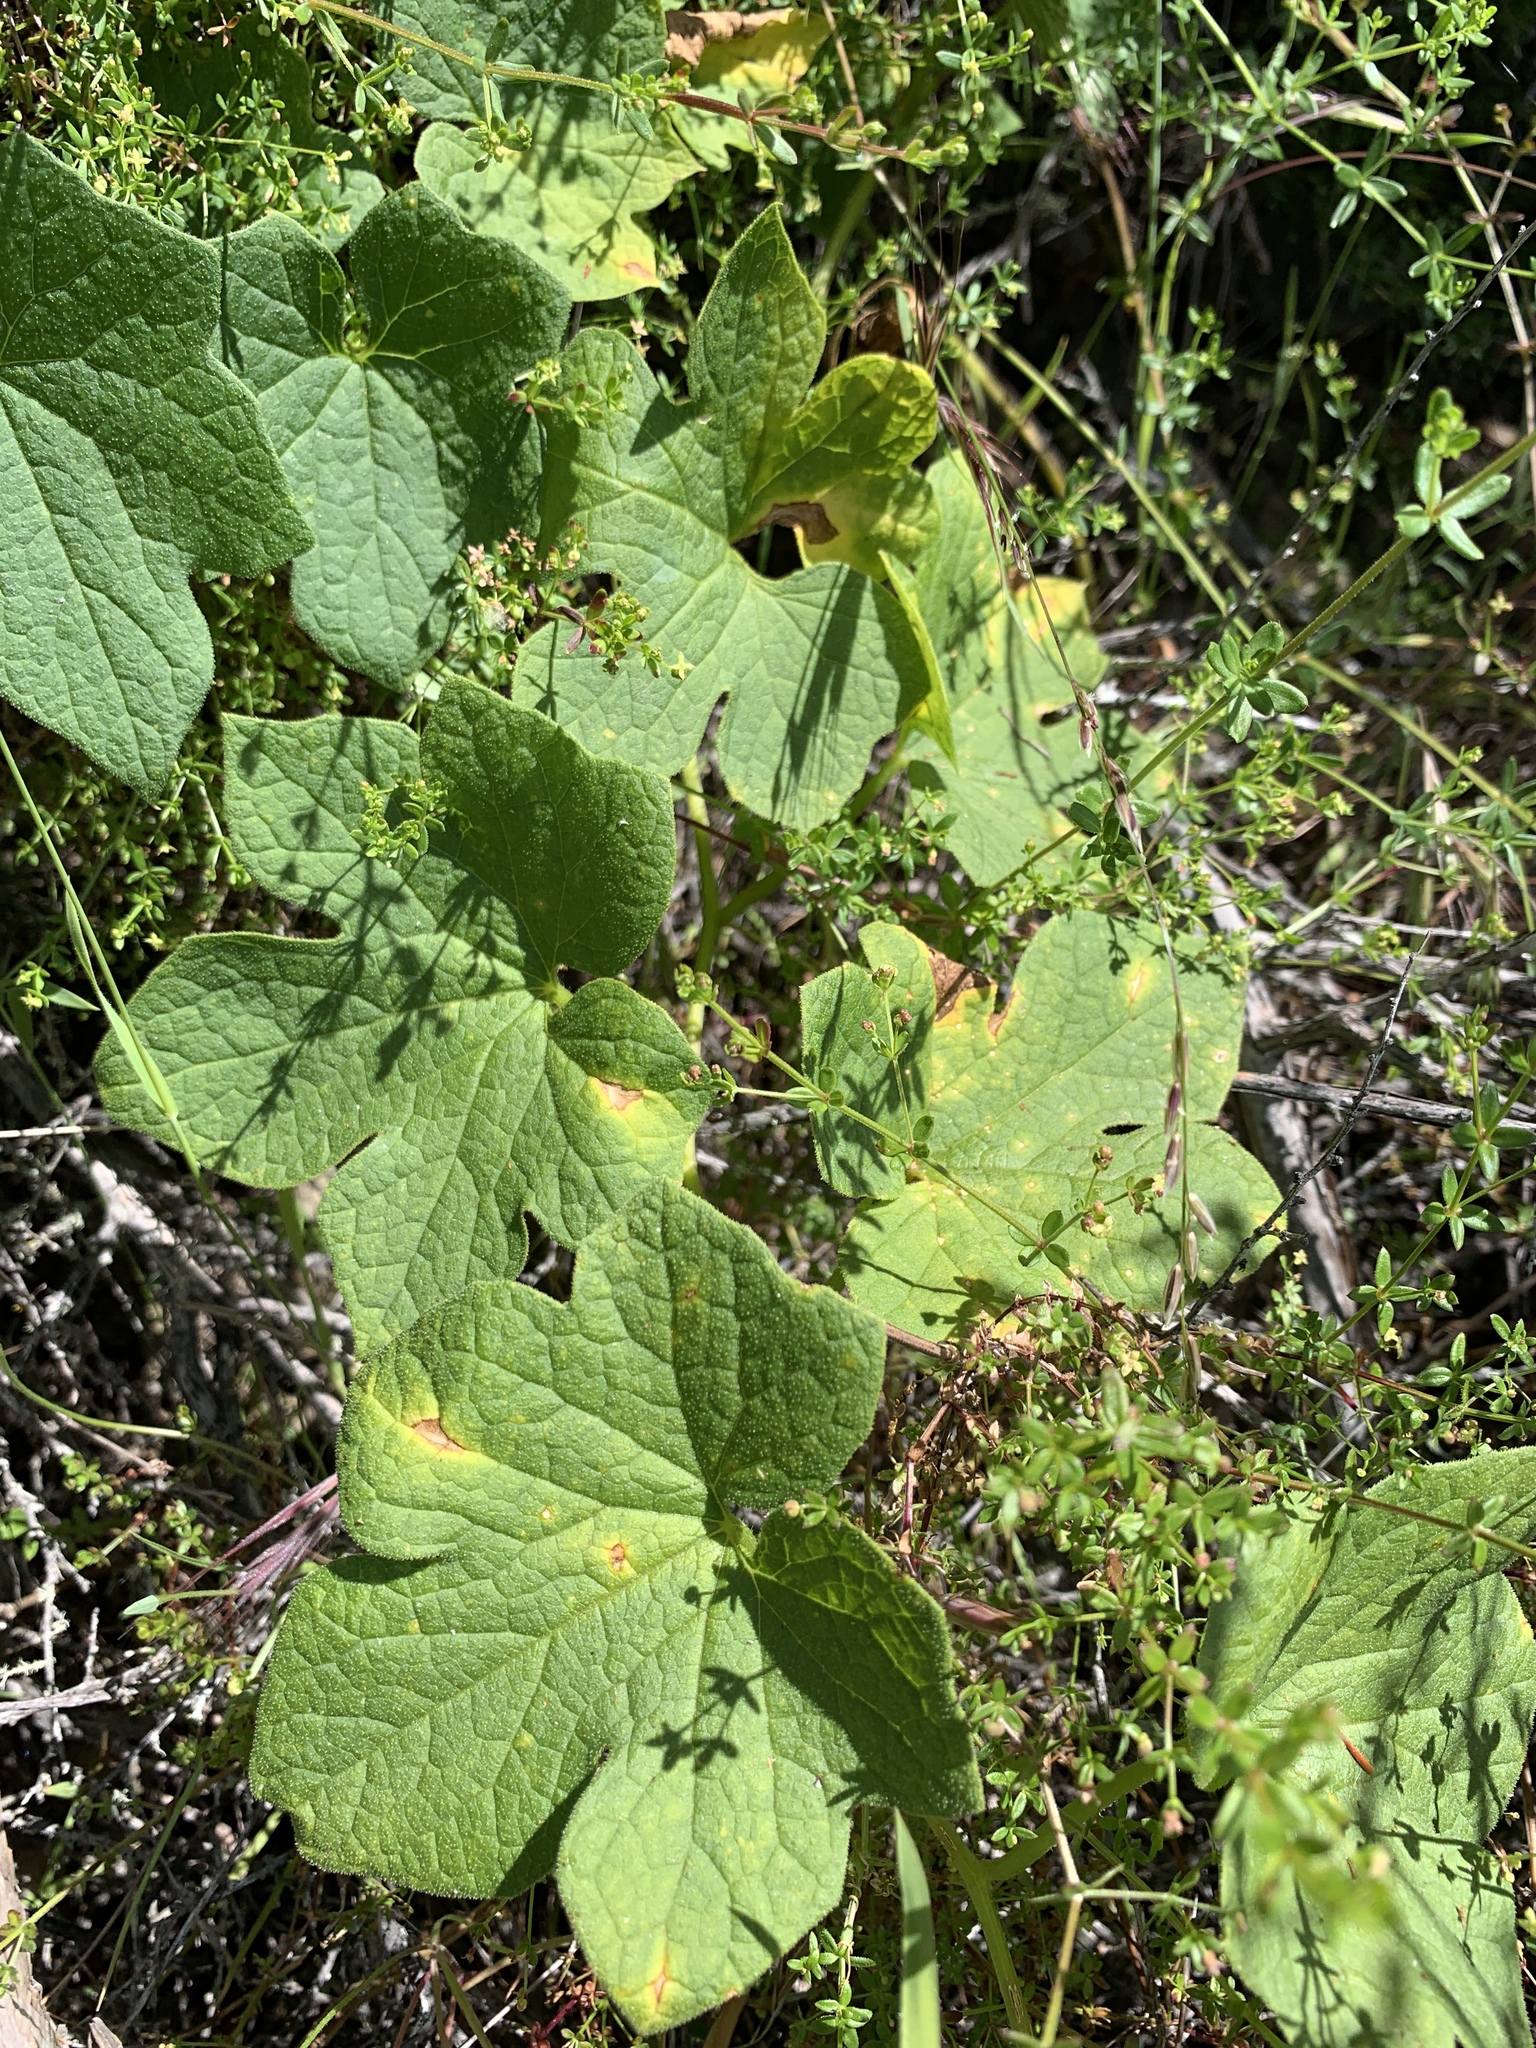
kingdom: Plantae
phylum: Tracheophyta
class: Magnoliopsida
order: Cucurbitales
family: Cucurbitaceae
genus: Marah
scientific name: Marah fabacea
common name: California manroot
